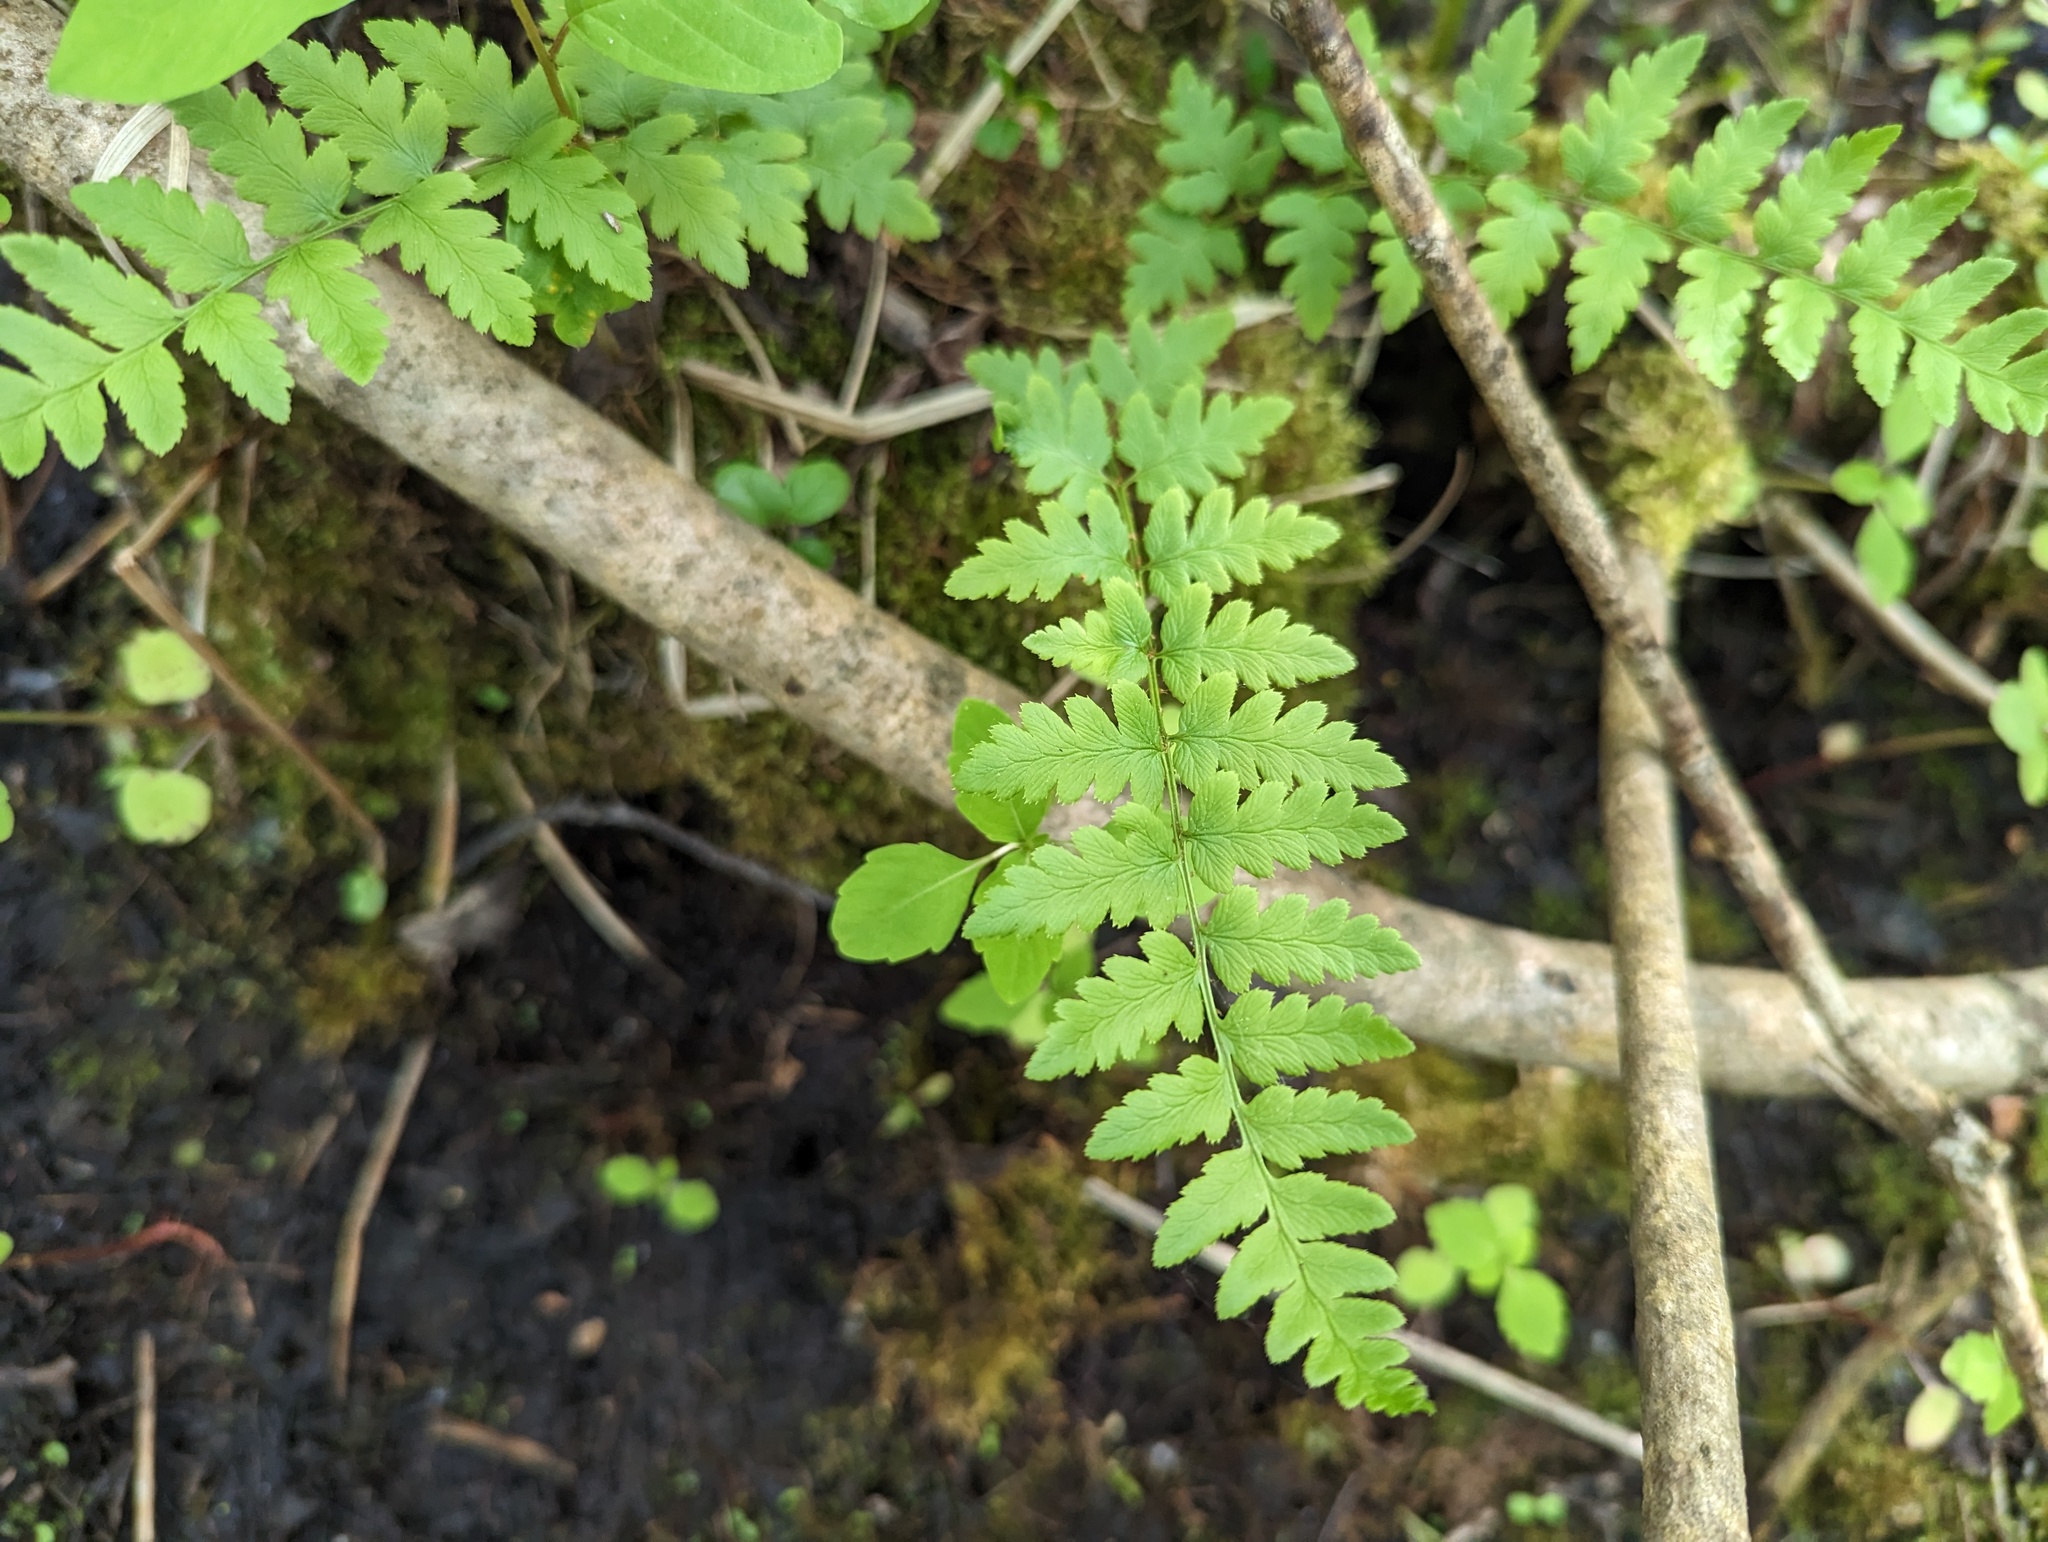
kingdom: Plantae
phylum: Tracheophyta
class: Polypodiopsida
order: Polypodiales
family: Dryopteridaceae
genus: Dryopteris
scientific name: Dryopteris cristata
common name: Crested wood fern
